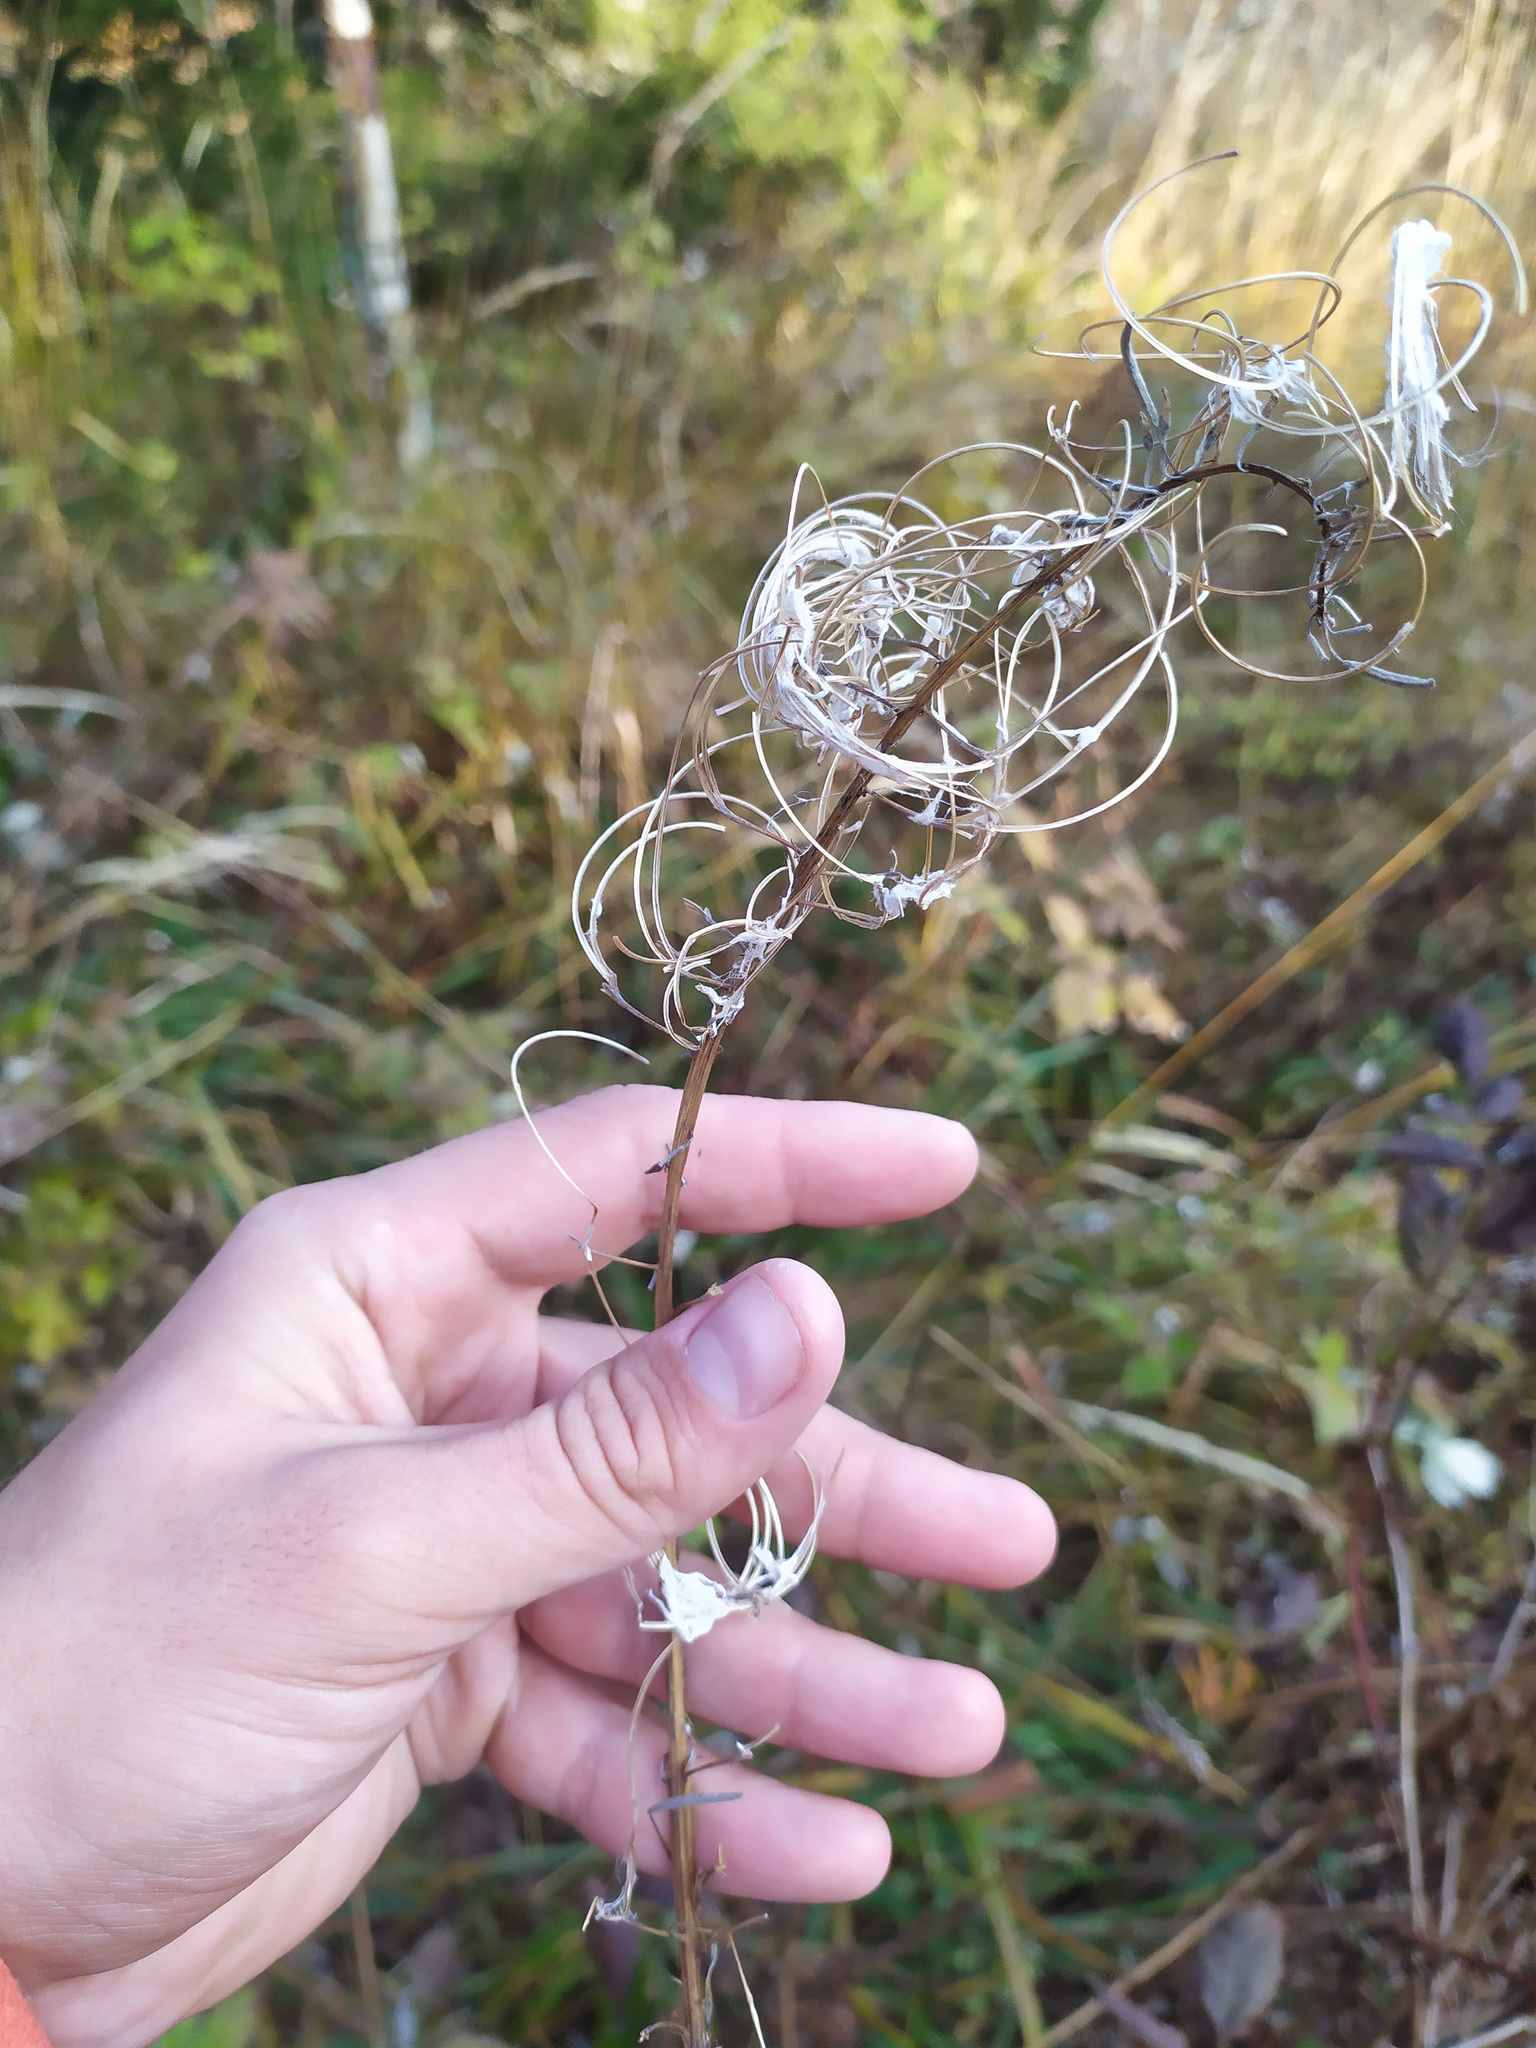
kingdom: Plantae
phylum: Tracheophyta
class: Magnoliopsida
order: Myrtales
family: Onagraceae
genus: Chamaenerion
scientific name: Chamaenerion angustifolium
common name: Fireweed
